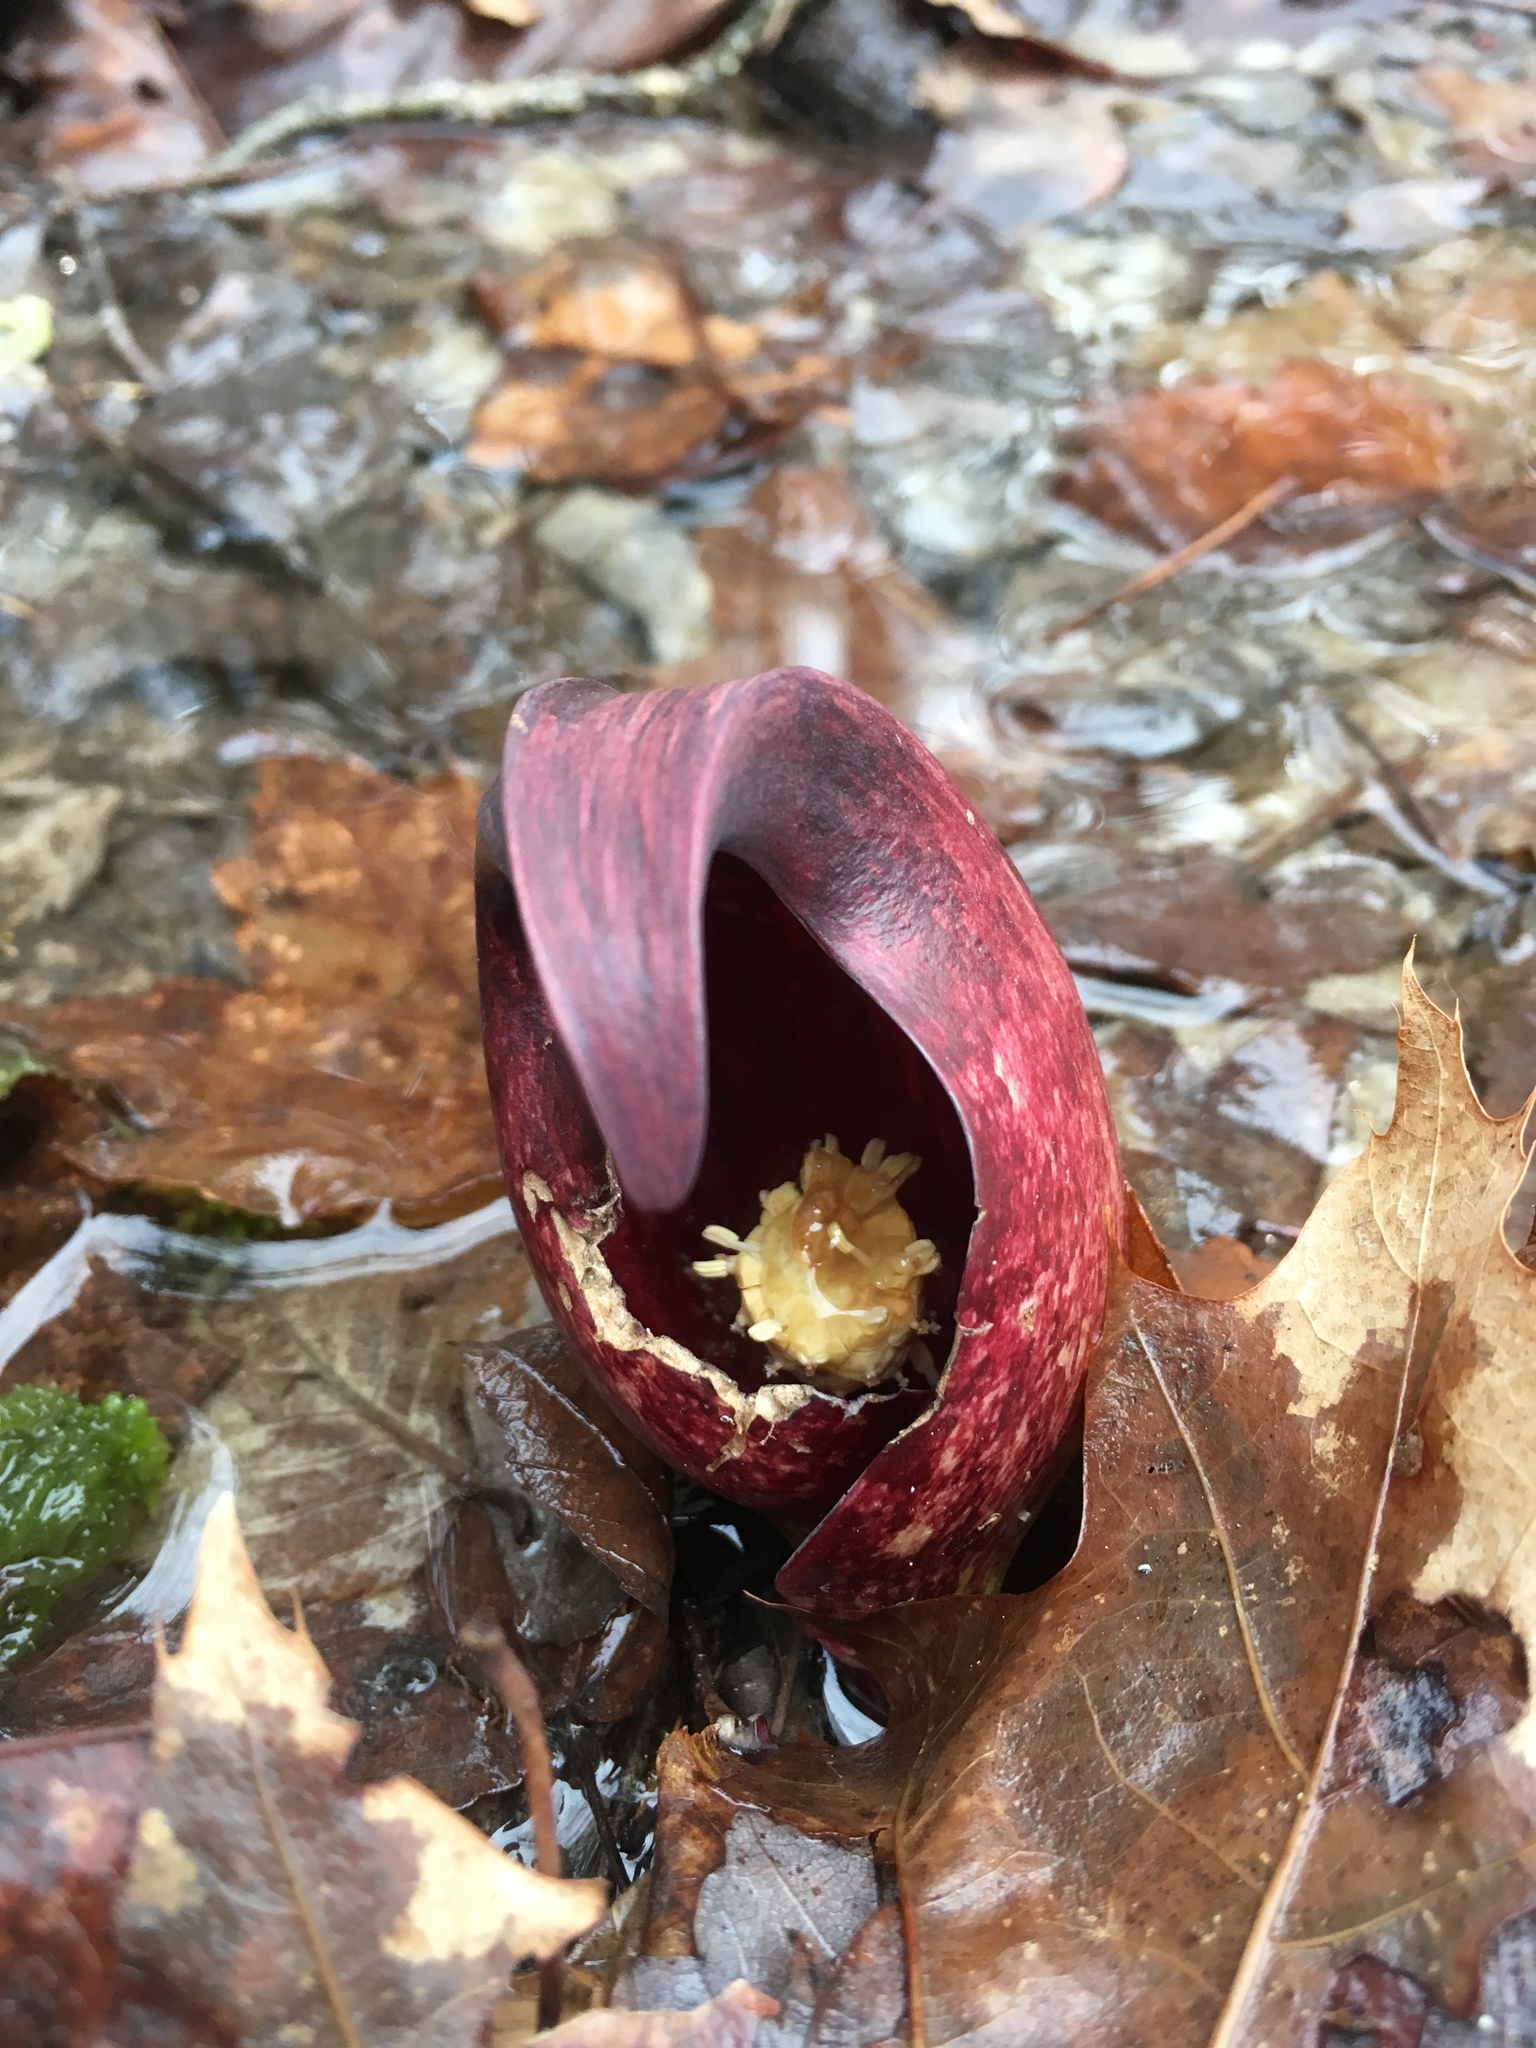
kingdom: Plantae
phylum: Tracheophyta
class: Liliopsida
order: Alismatales
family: Araceae
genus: Symplocarpus
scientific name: Symplocarpus foetidus
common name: Eastern skunk cabbage
